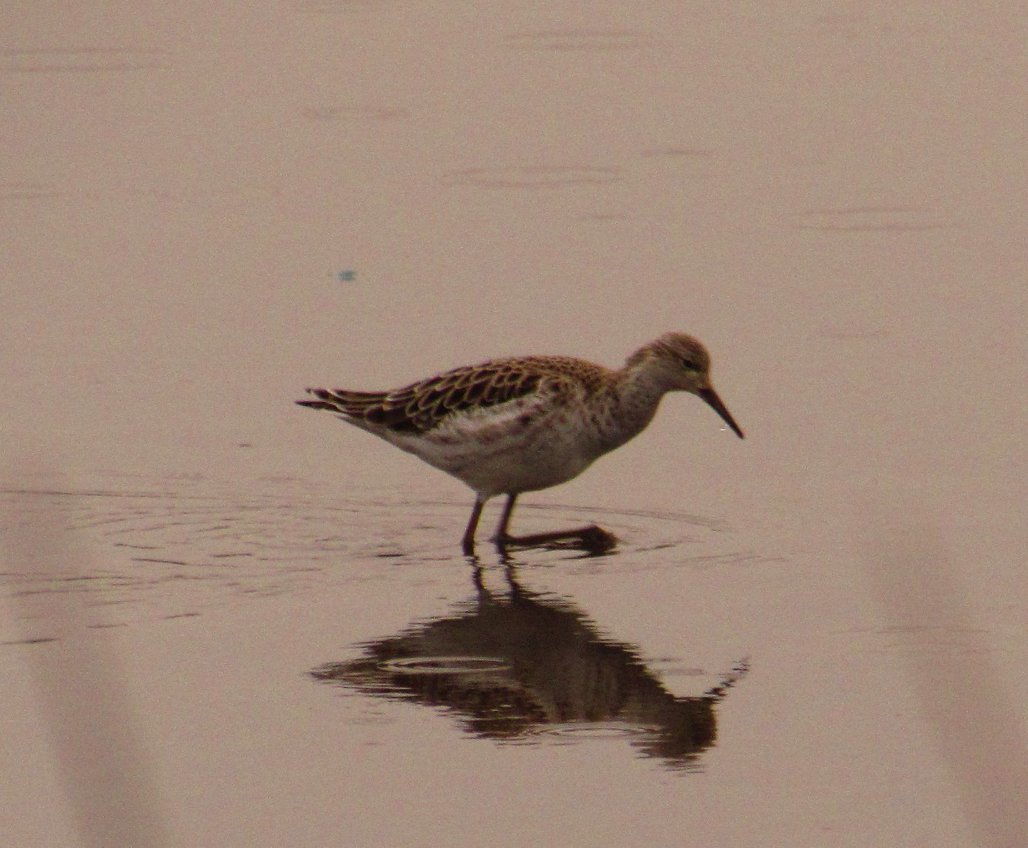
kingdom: Animalia
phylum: Chordata
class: Aves
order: Charadriiformes
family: Scolopacidae
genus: Calidris
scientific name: Calidris pugnax
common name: Ruff
